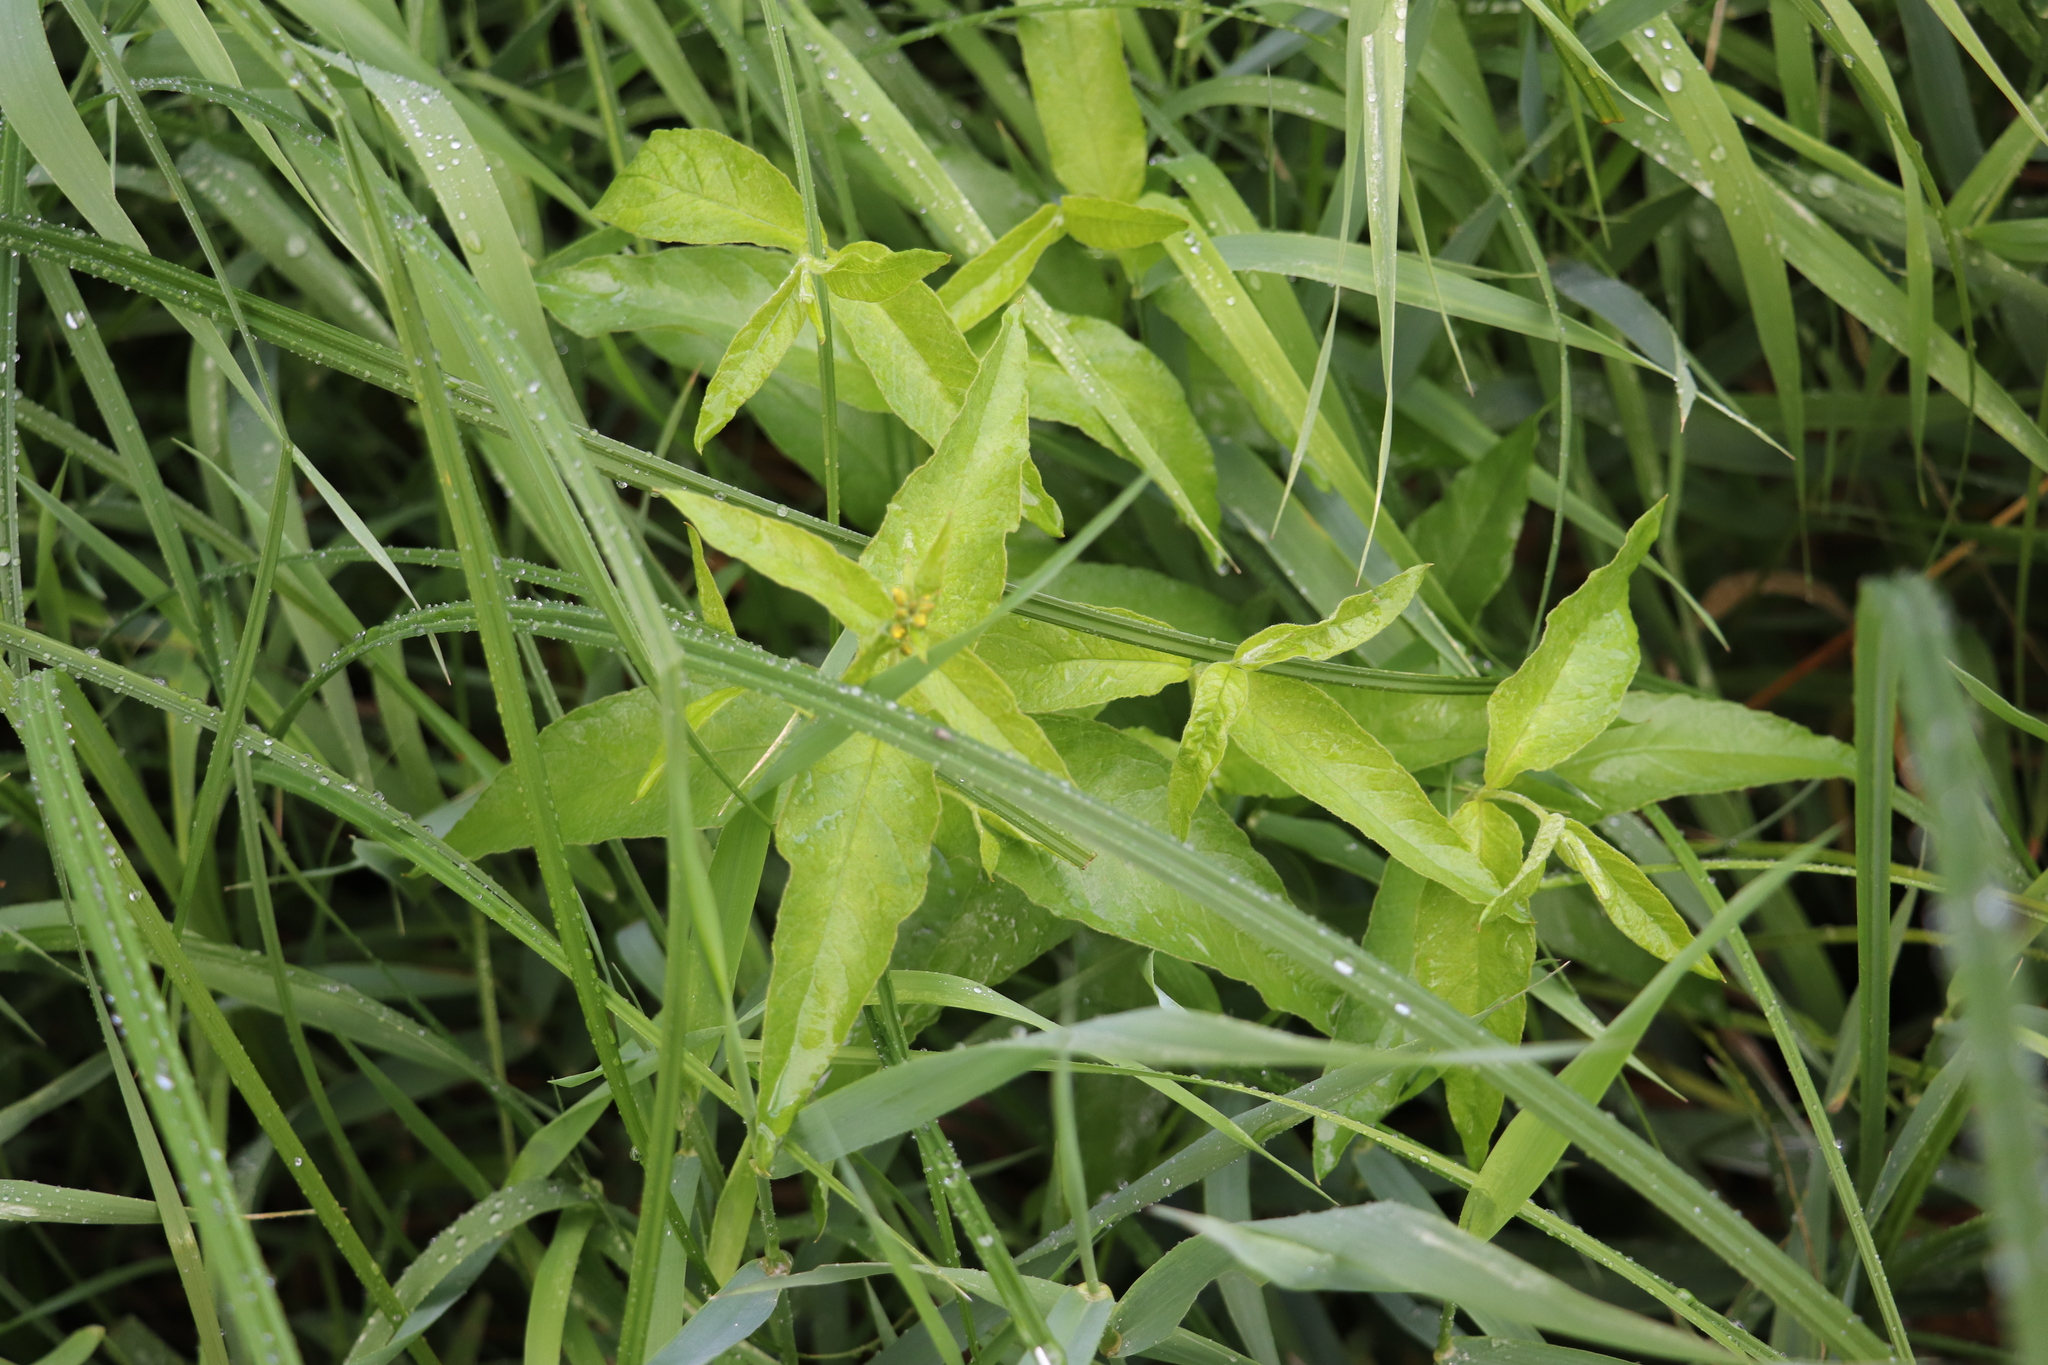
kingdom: Plantae
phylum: Tracheophyta
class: Magnoliopsida
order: Ericales
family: Primulaceae
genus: Lysimachia
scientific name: Lysimachia vulgaris
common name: Yellow loosestrife
